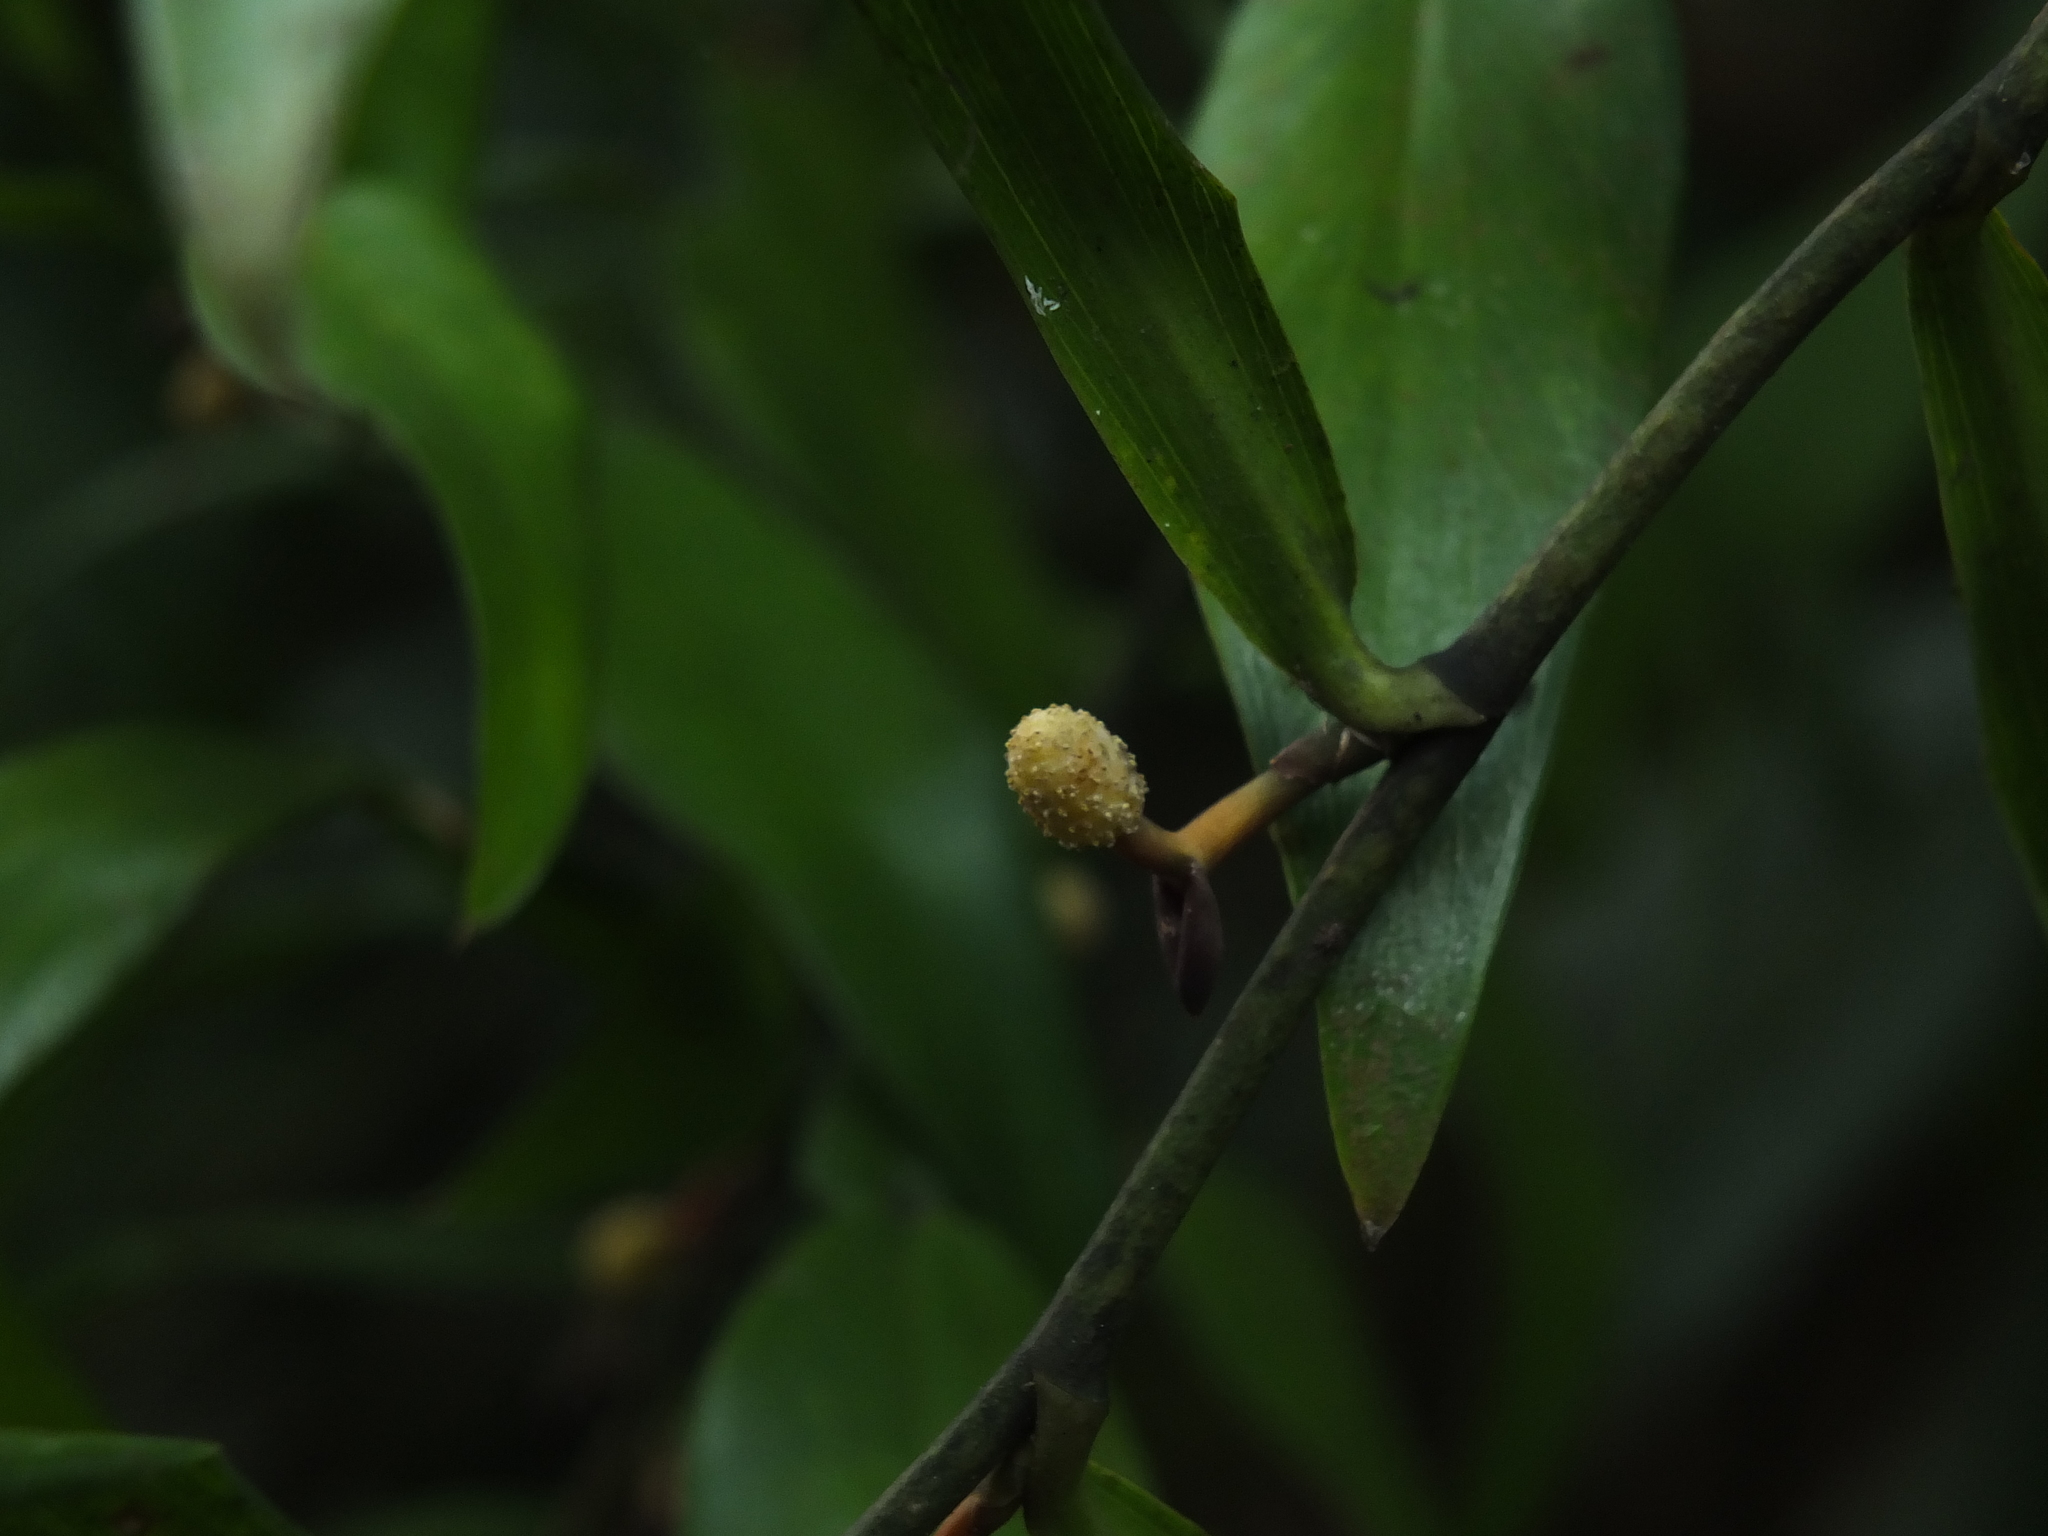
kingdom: Plantae
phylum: Tracheophyta
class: Liliopsida
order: Alismatales
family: Araceae
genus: Pothos
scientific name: Pothos scandens
